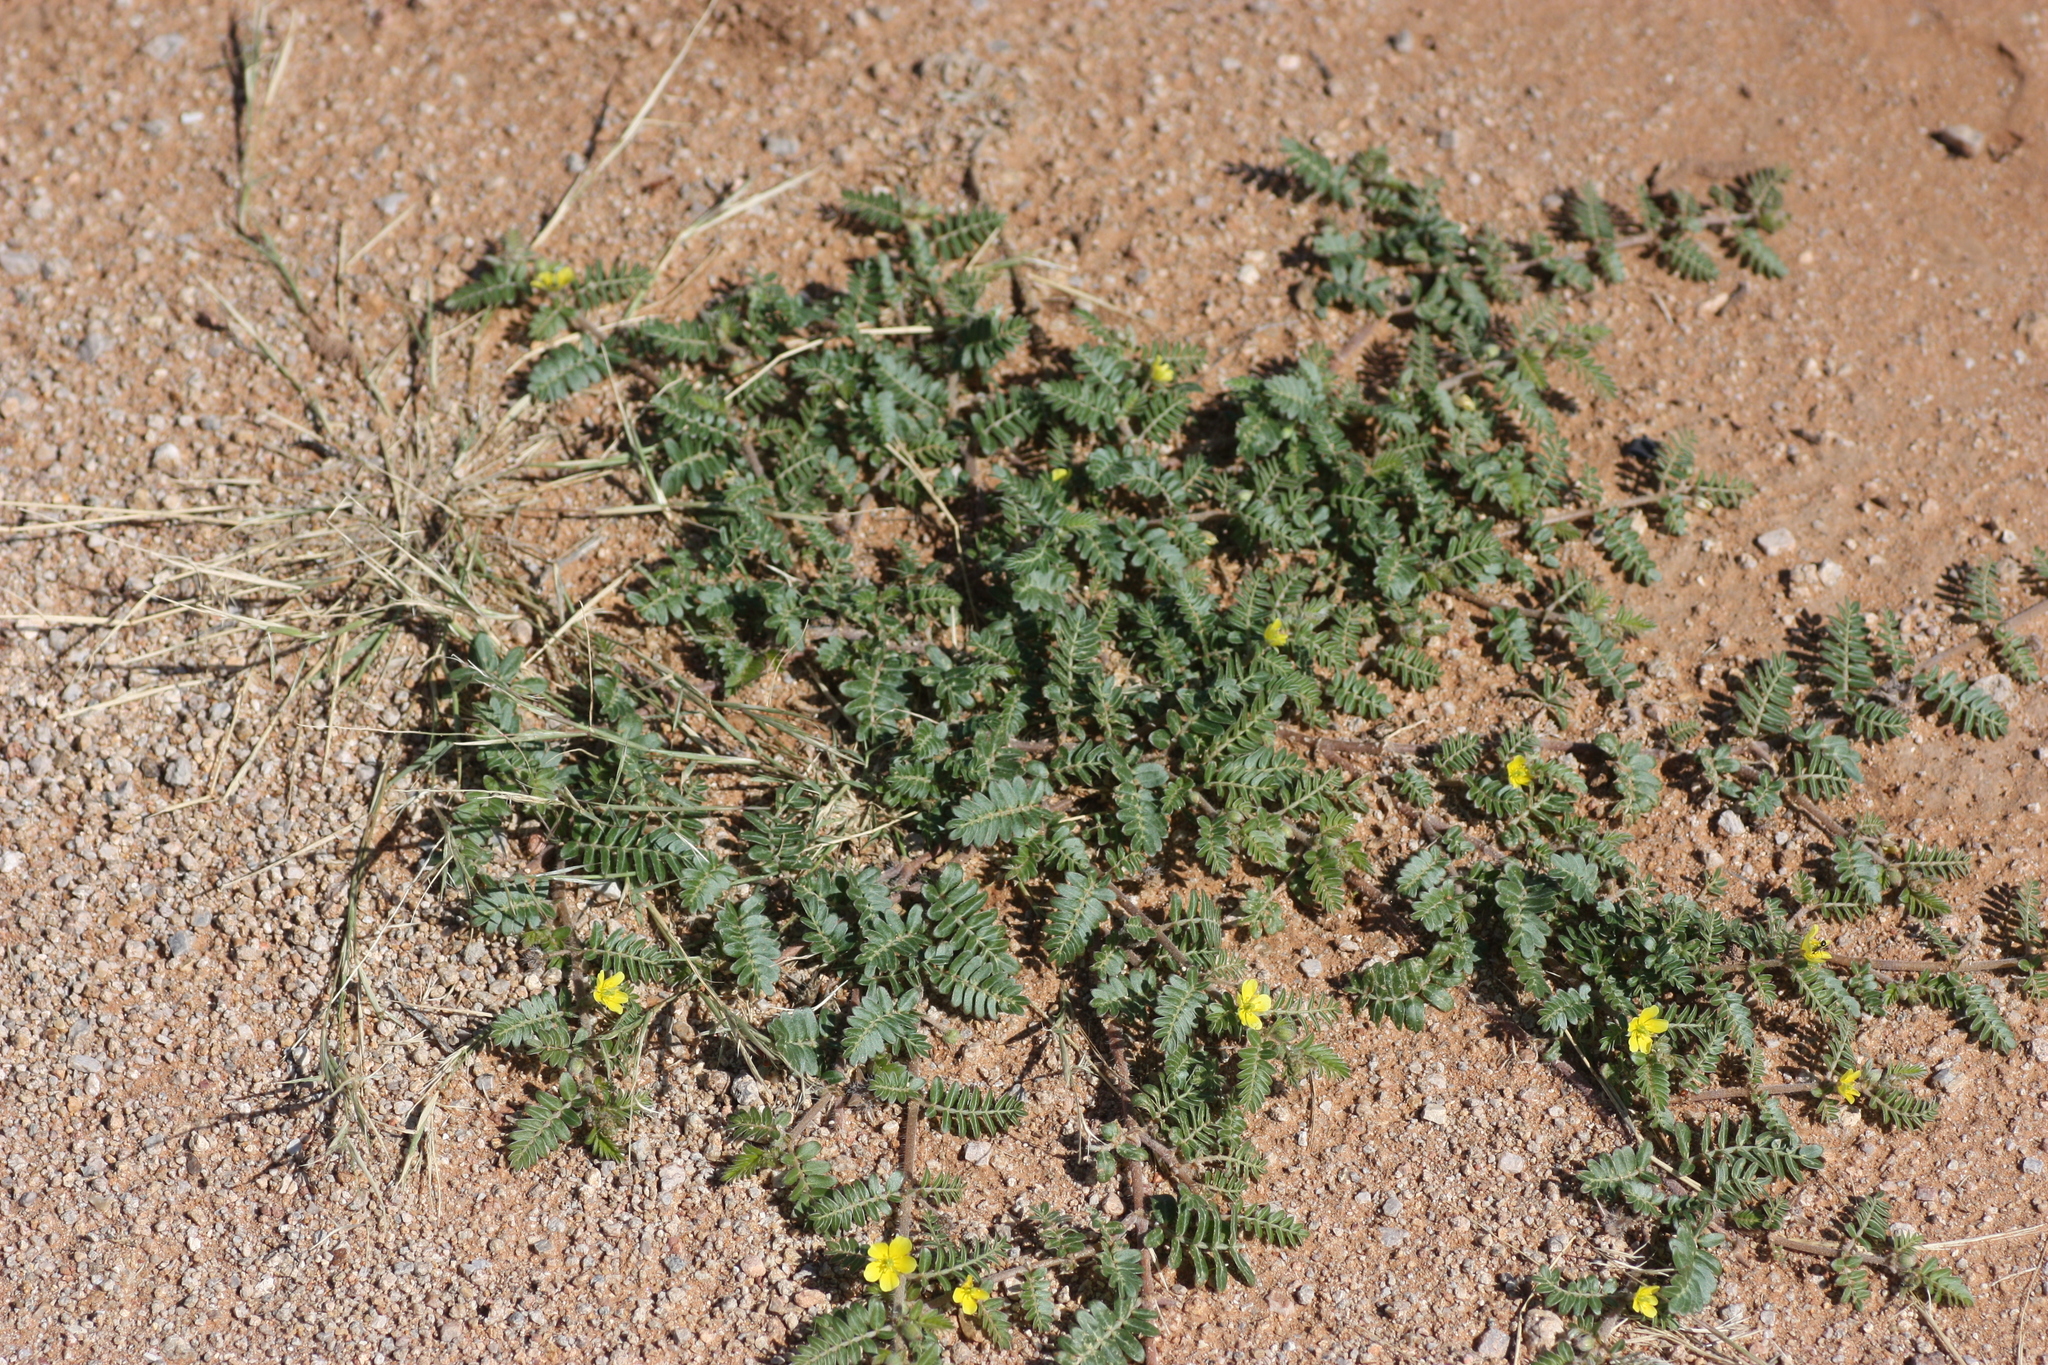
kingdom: Plantae
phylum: Tracheophyta
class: Magnoliopsida
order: Zygophyllales
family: Zygophyllaceae
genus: Tribulus
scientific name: Tribulus terrestris
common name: Puncturevine
